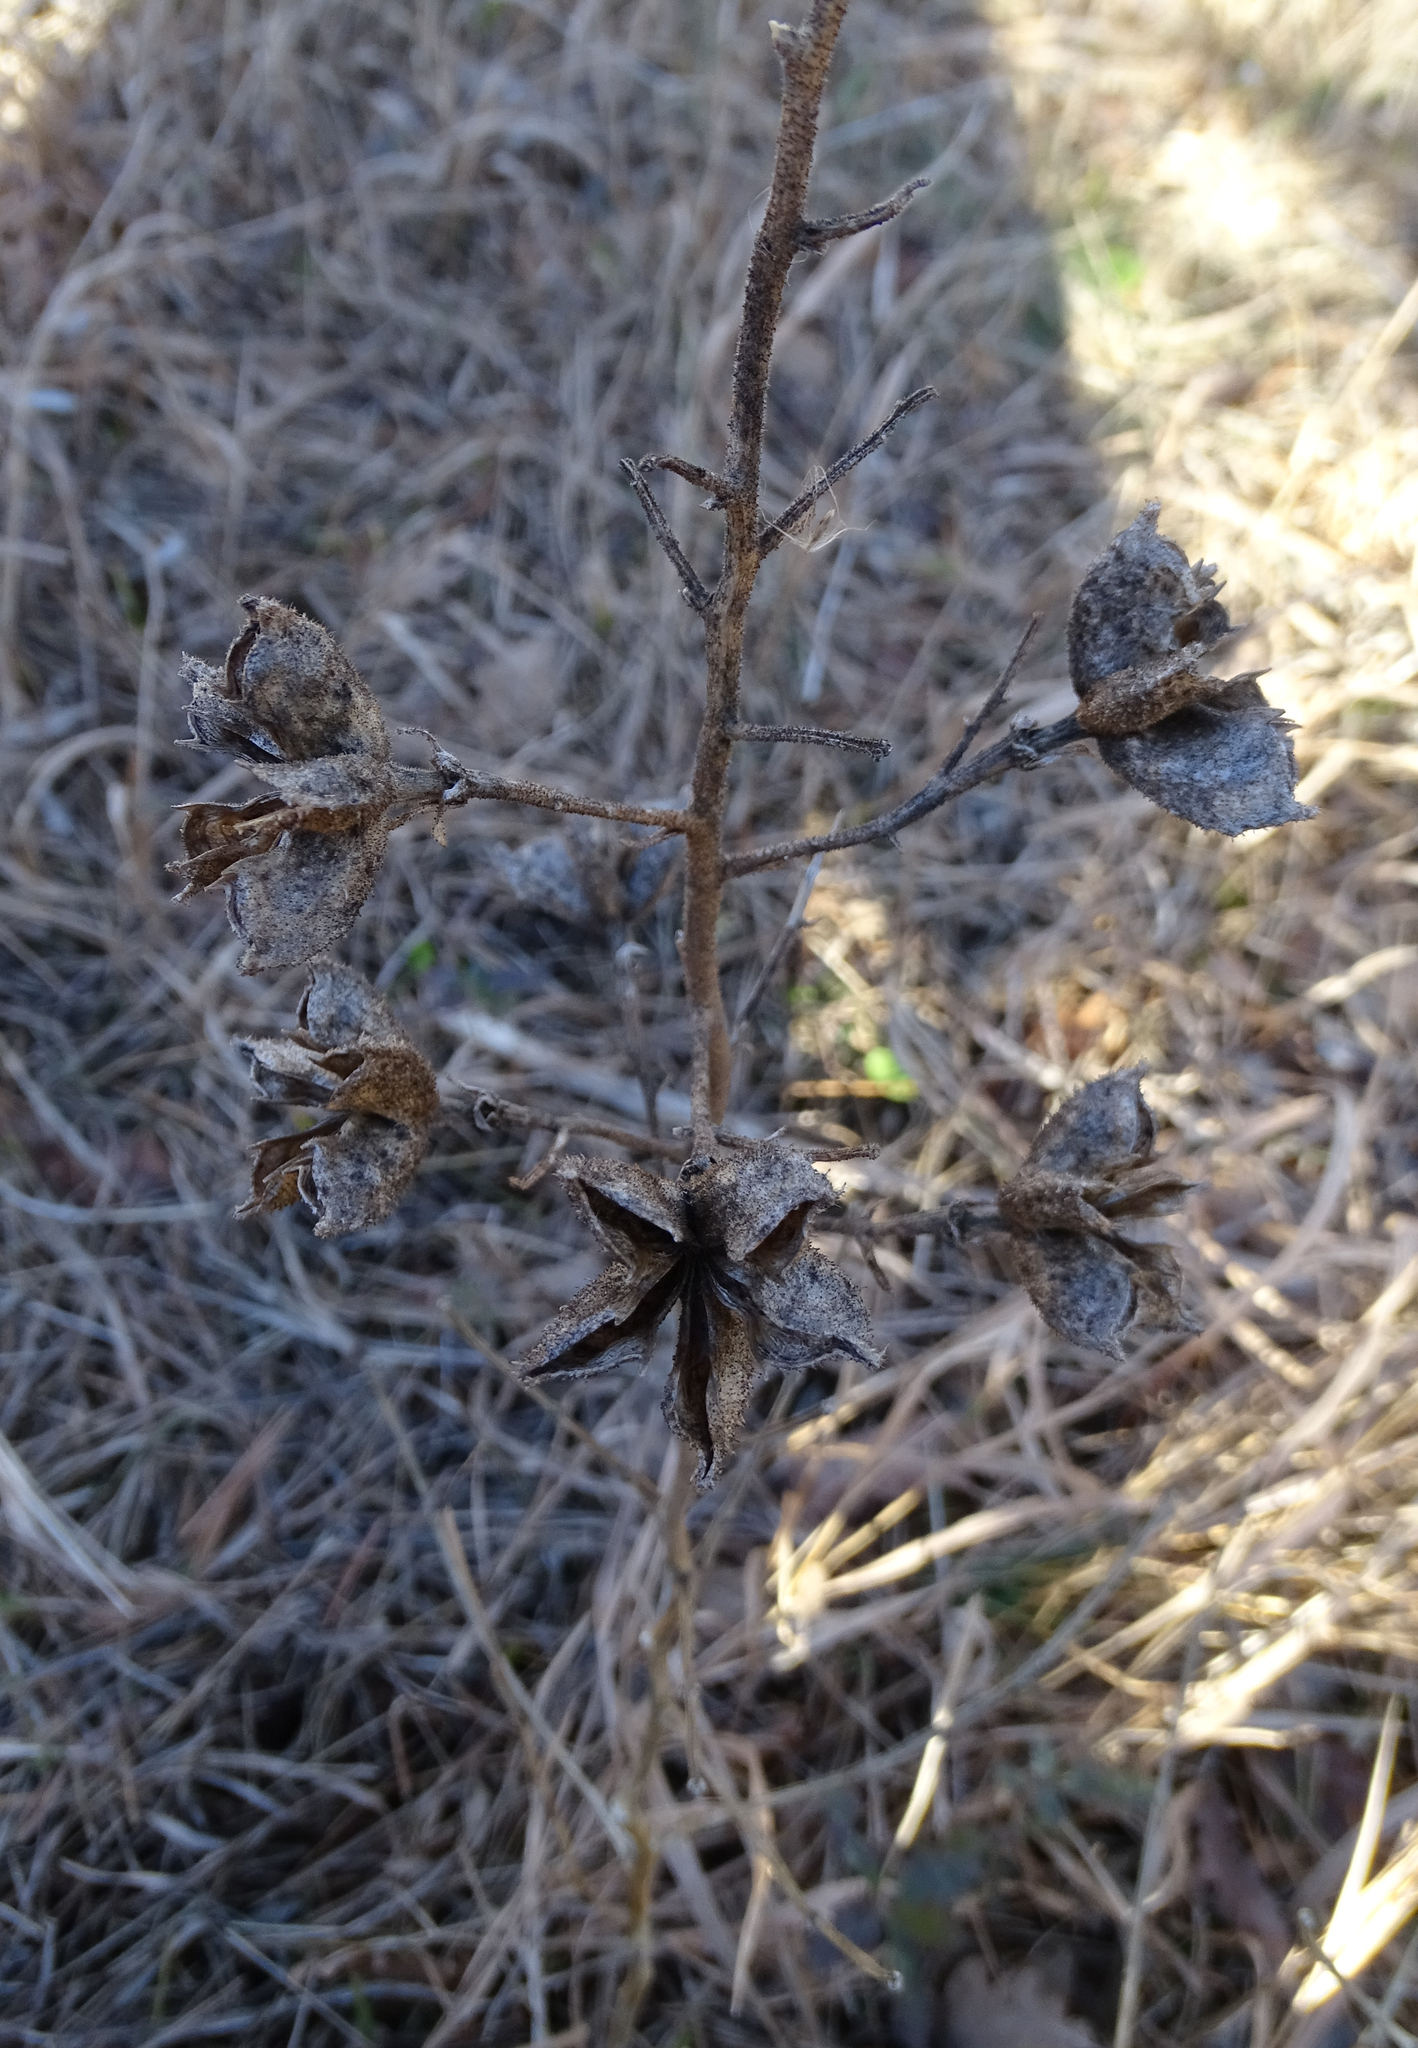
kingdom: Plantae
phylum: Tracheophyta
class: Magnoliopsida
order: Sapindales
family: Rutaceae
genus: Dictamnus
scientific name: Dictamnus albus
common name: Gasplant
